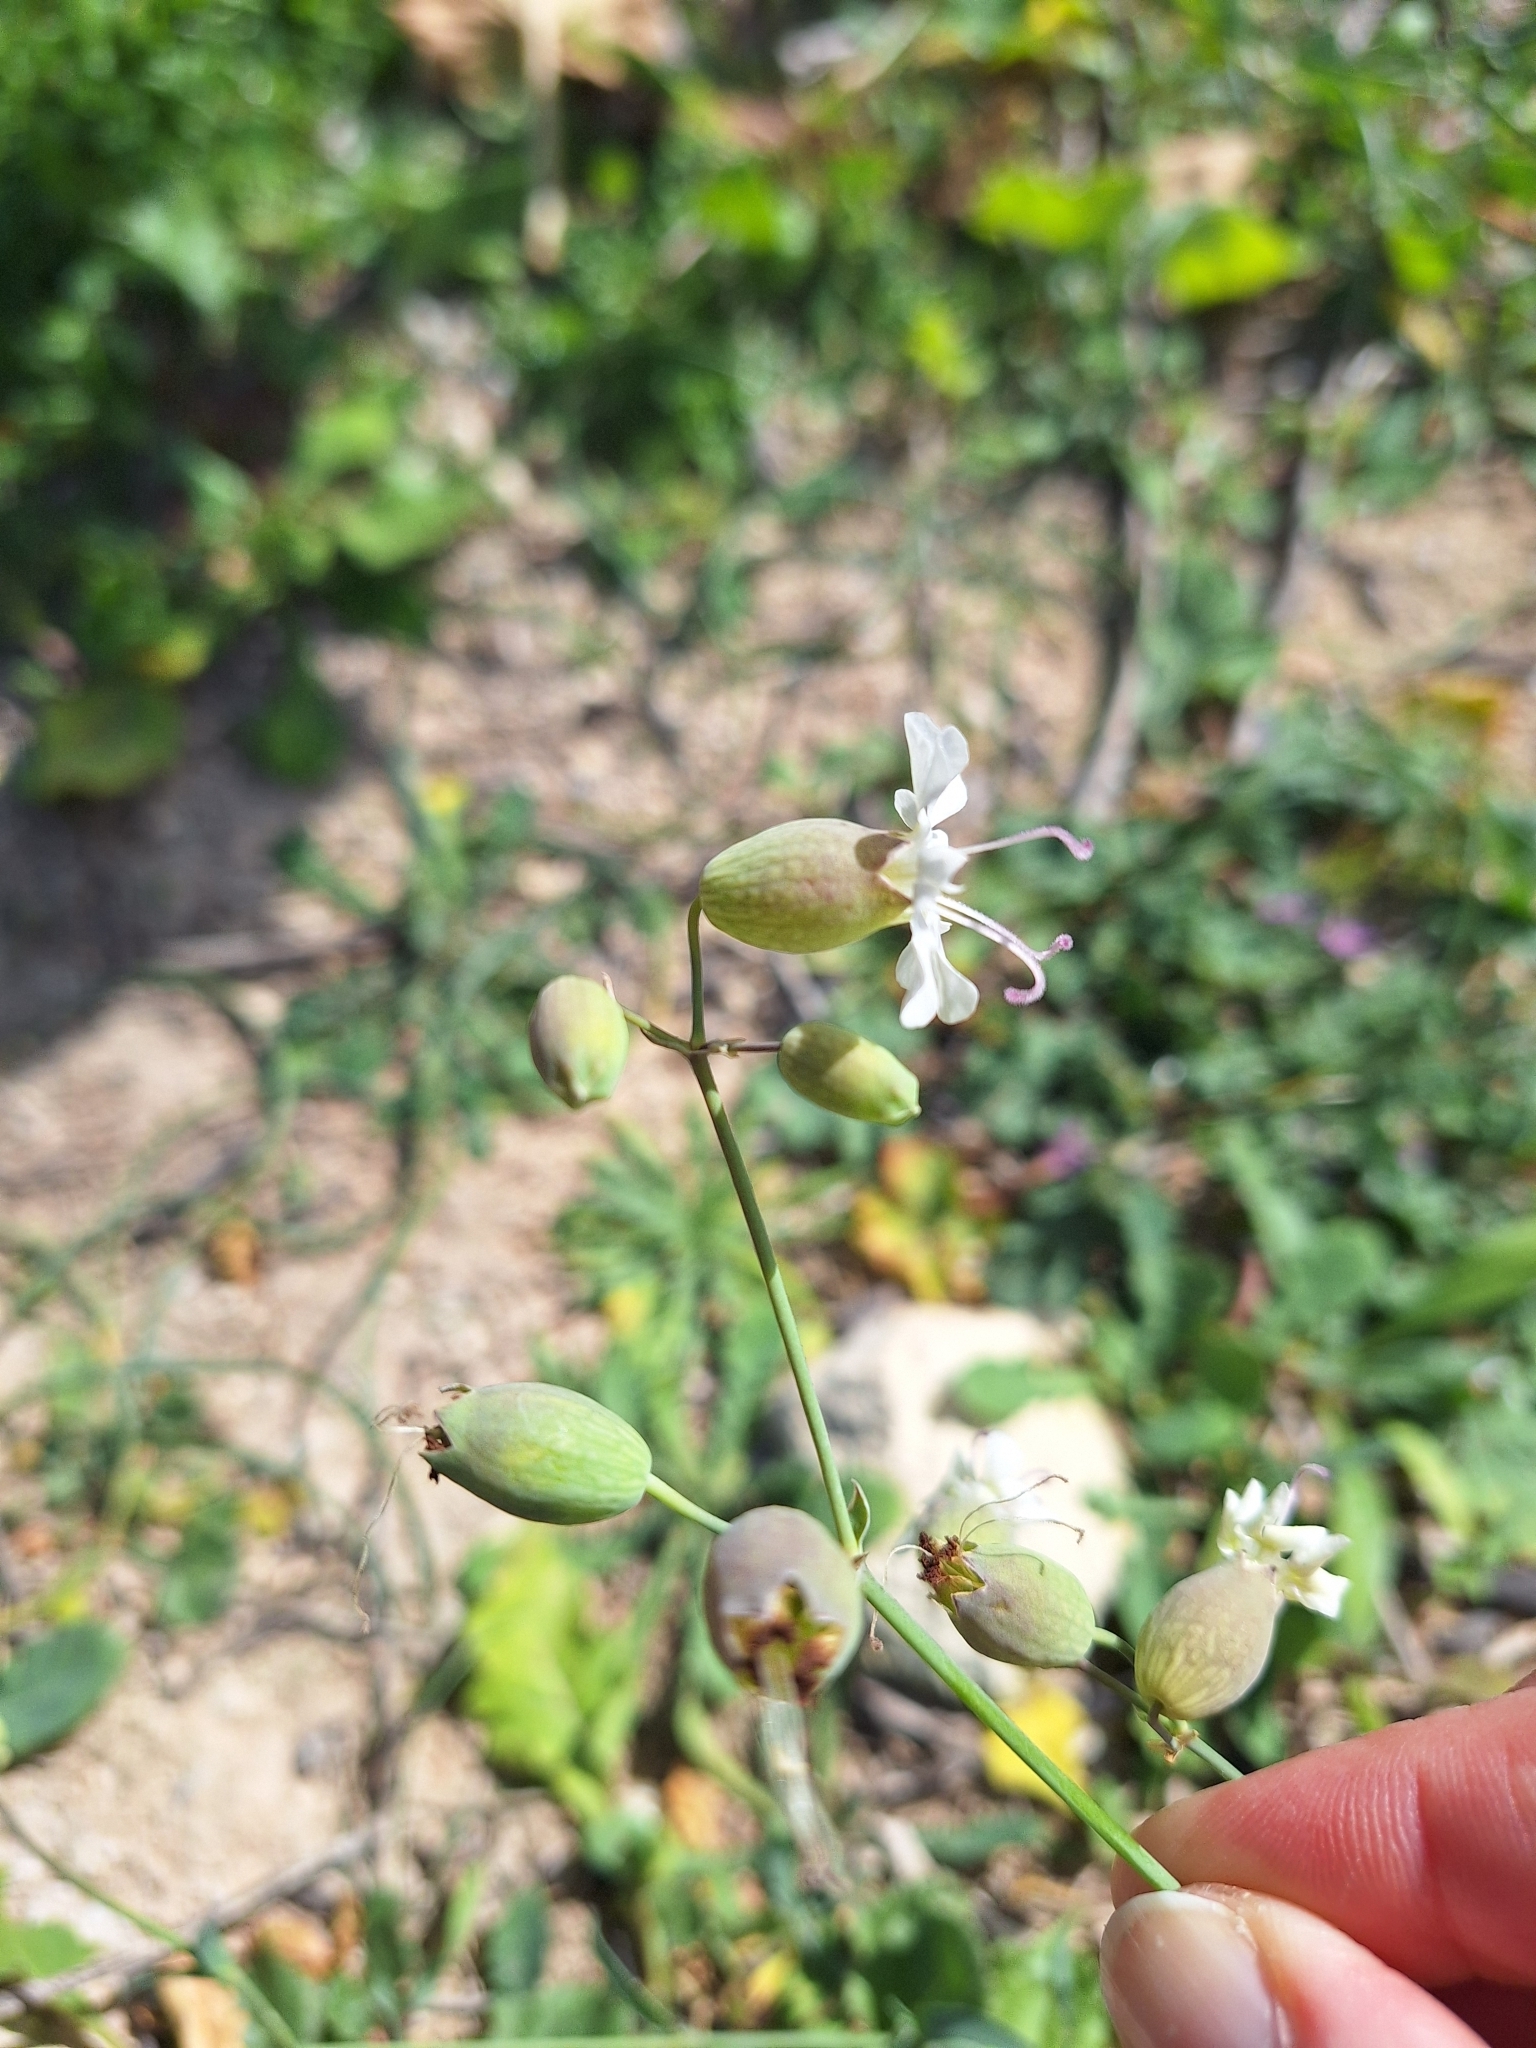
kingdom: Plantae
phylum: Tracheophyta
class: Magnoliopsida
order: Caryophyllales
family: Caryophyllaceae
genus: Silene
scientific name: Silene vulgaris
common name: Bladder campion
